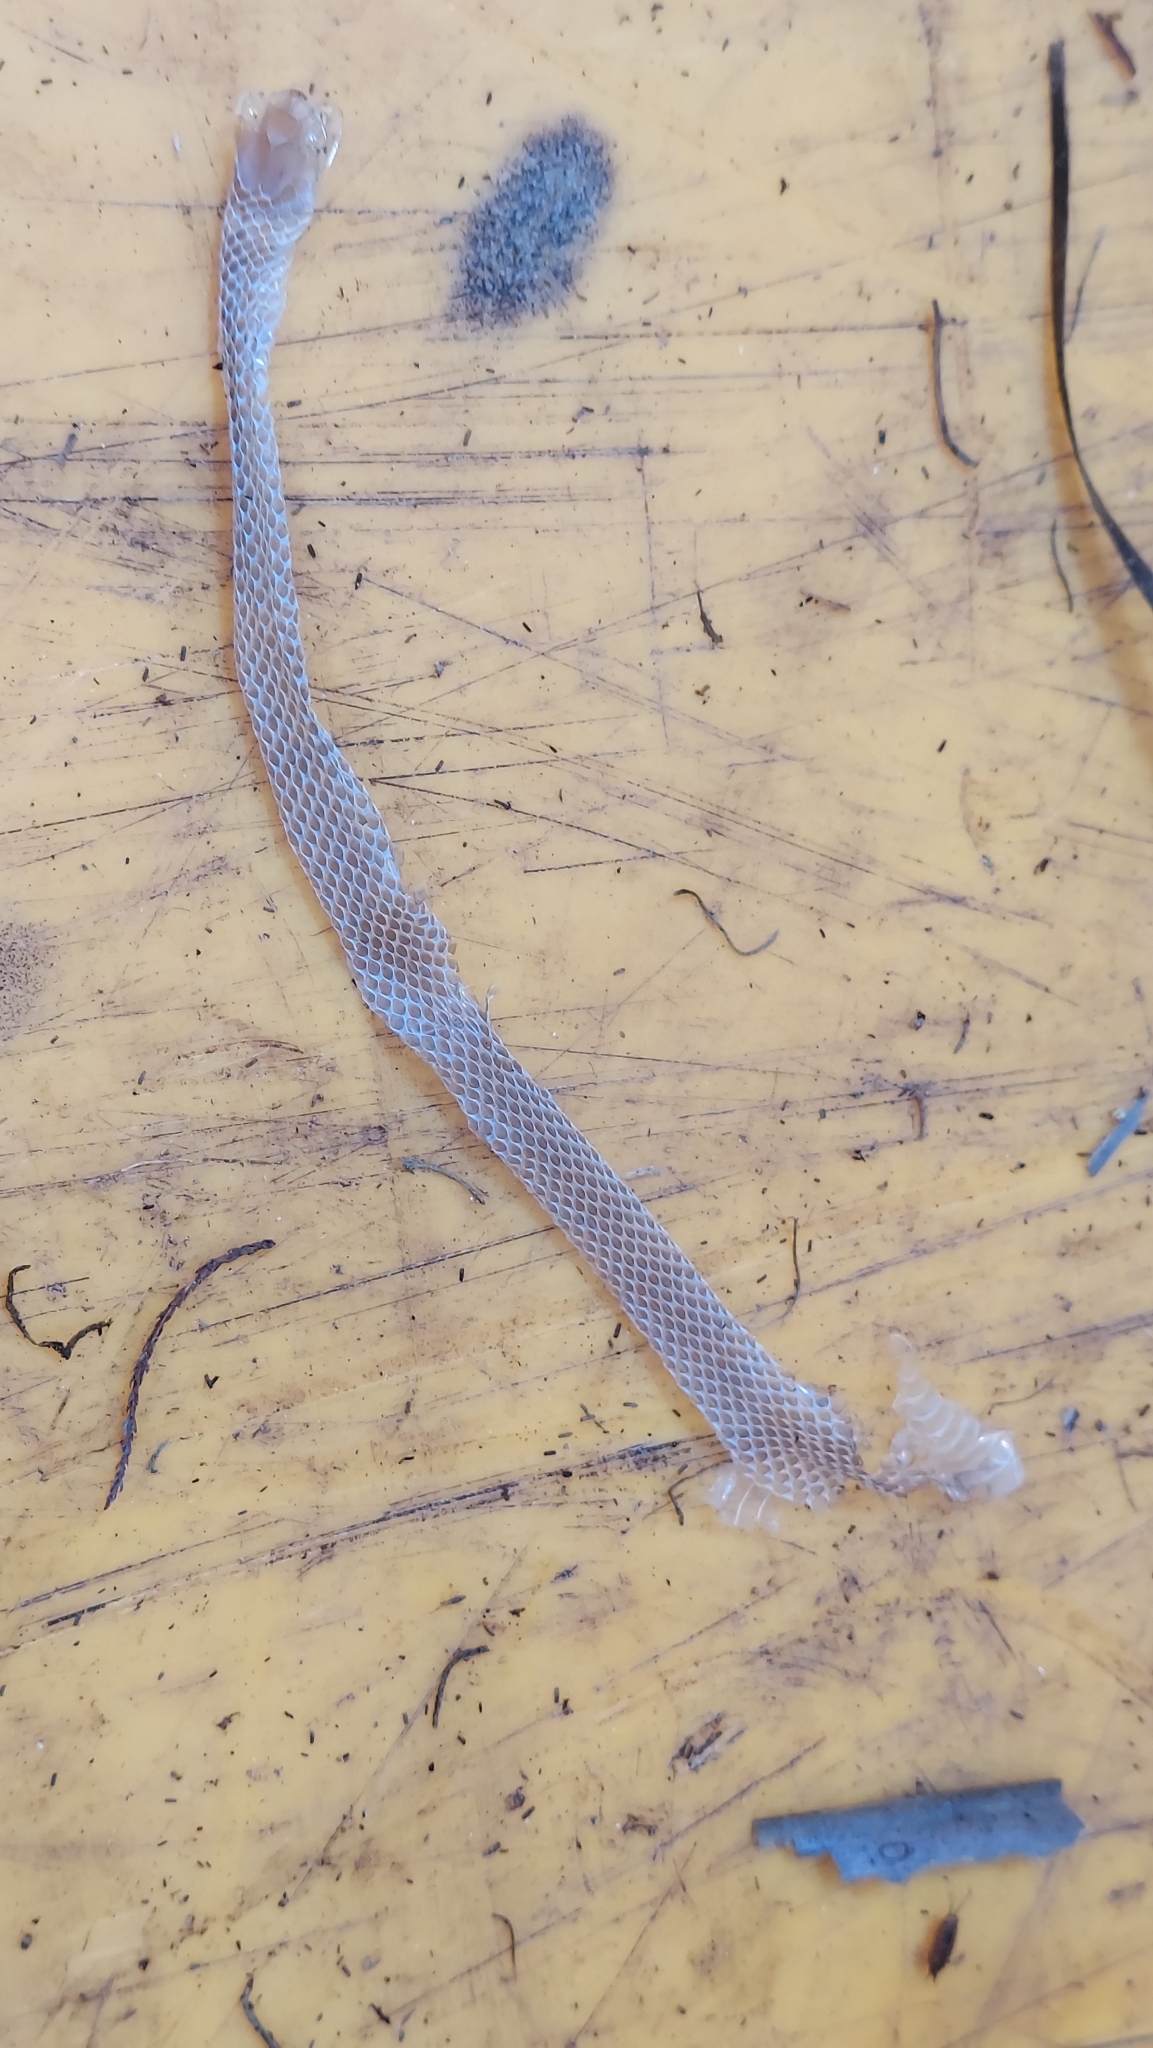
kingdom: Animalia
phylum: Chordata
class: Squamata
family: Colubridae
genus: Diadophis
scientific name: Diadophis punctatus
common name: Ringneck snake
